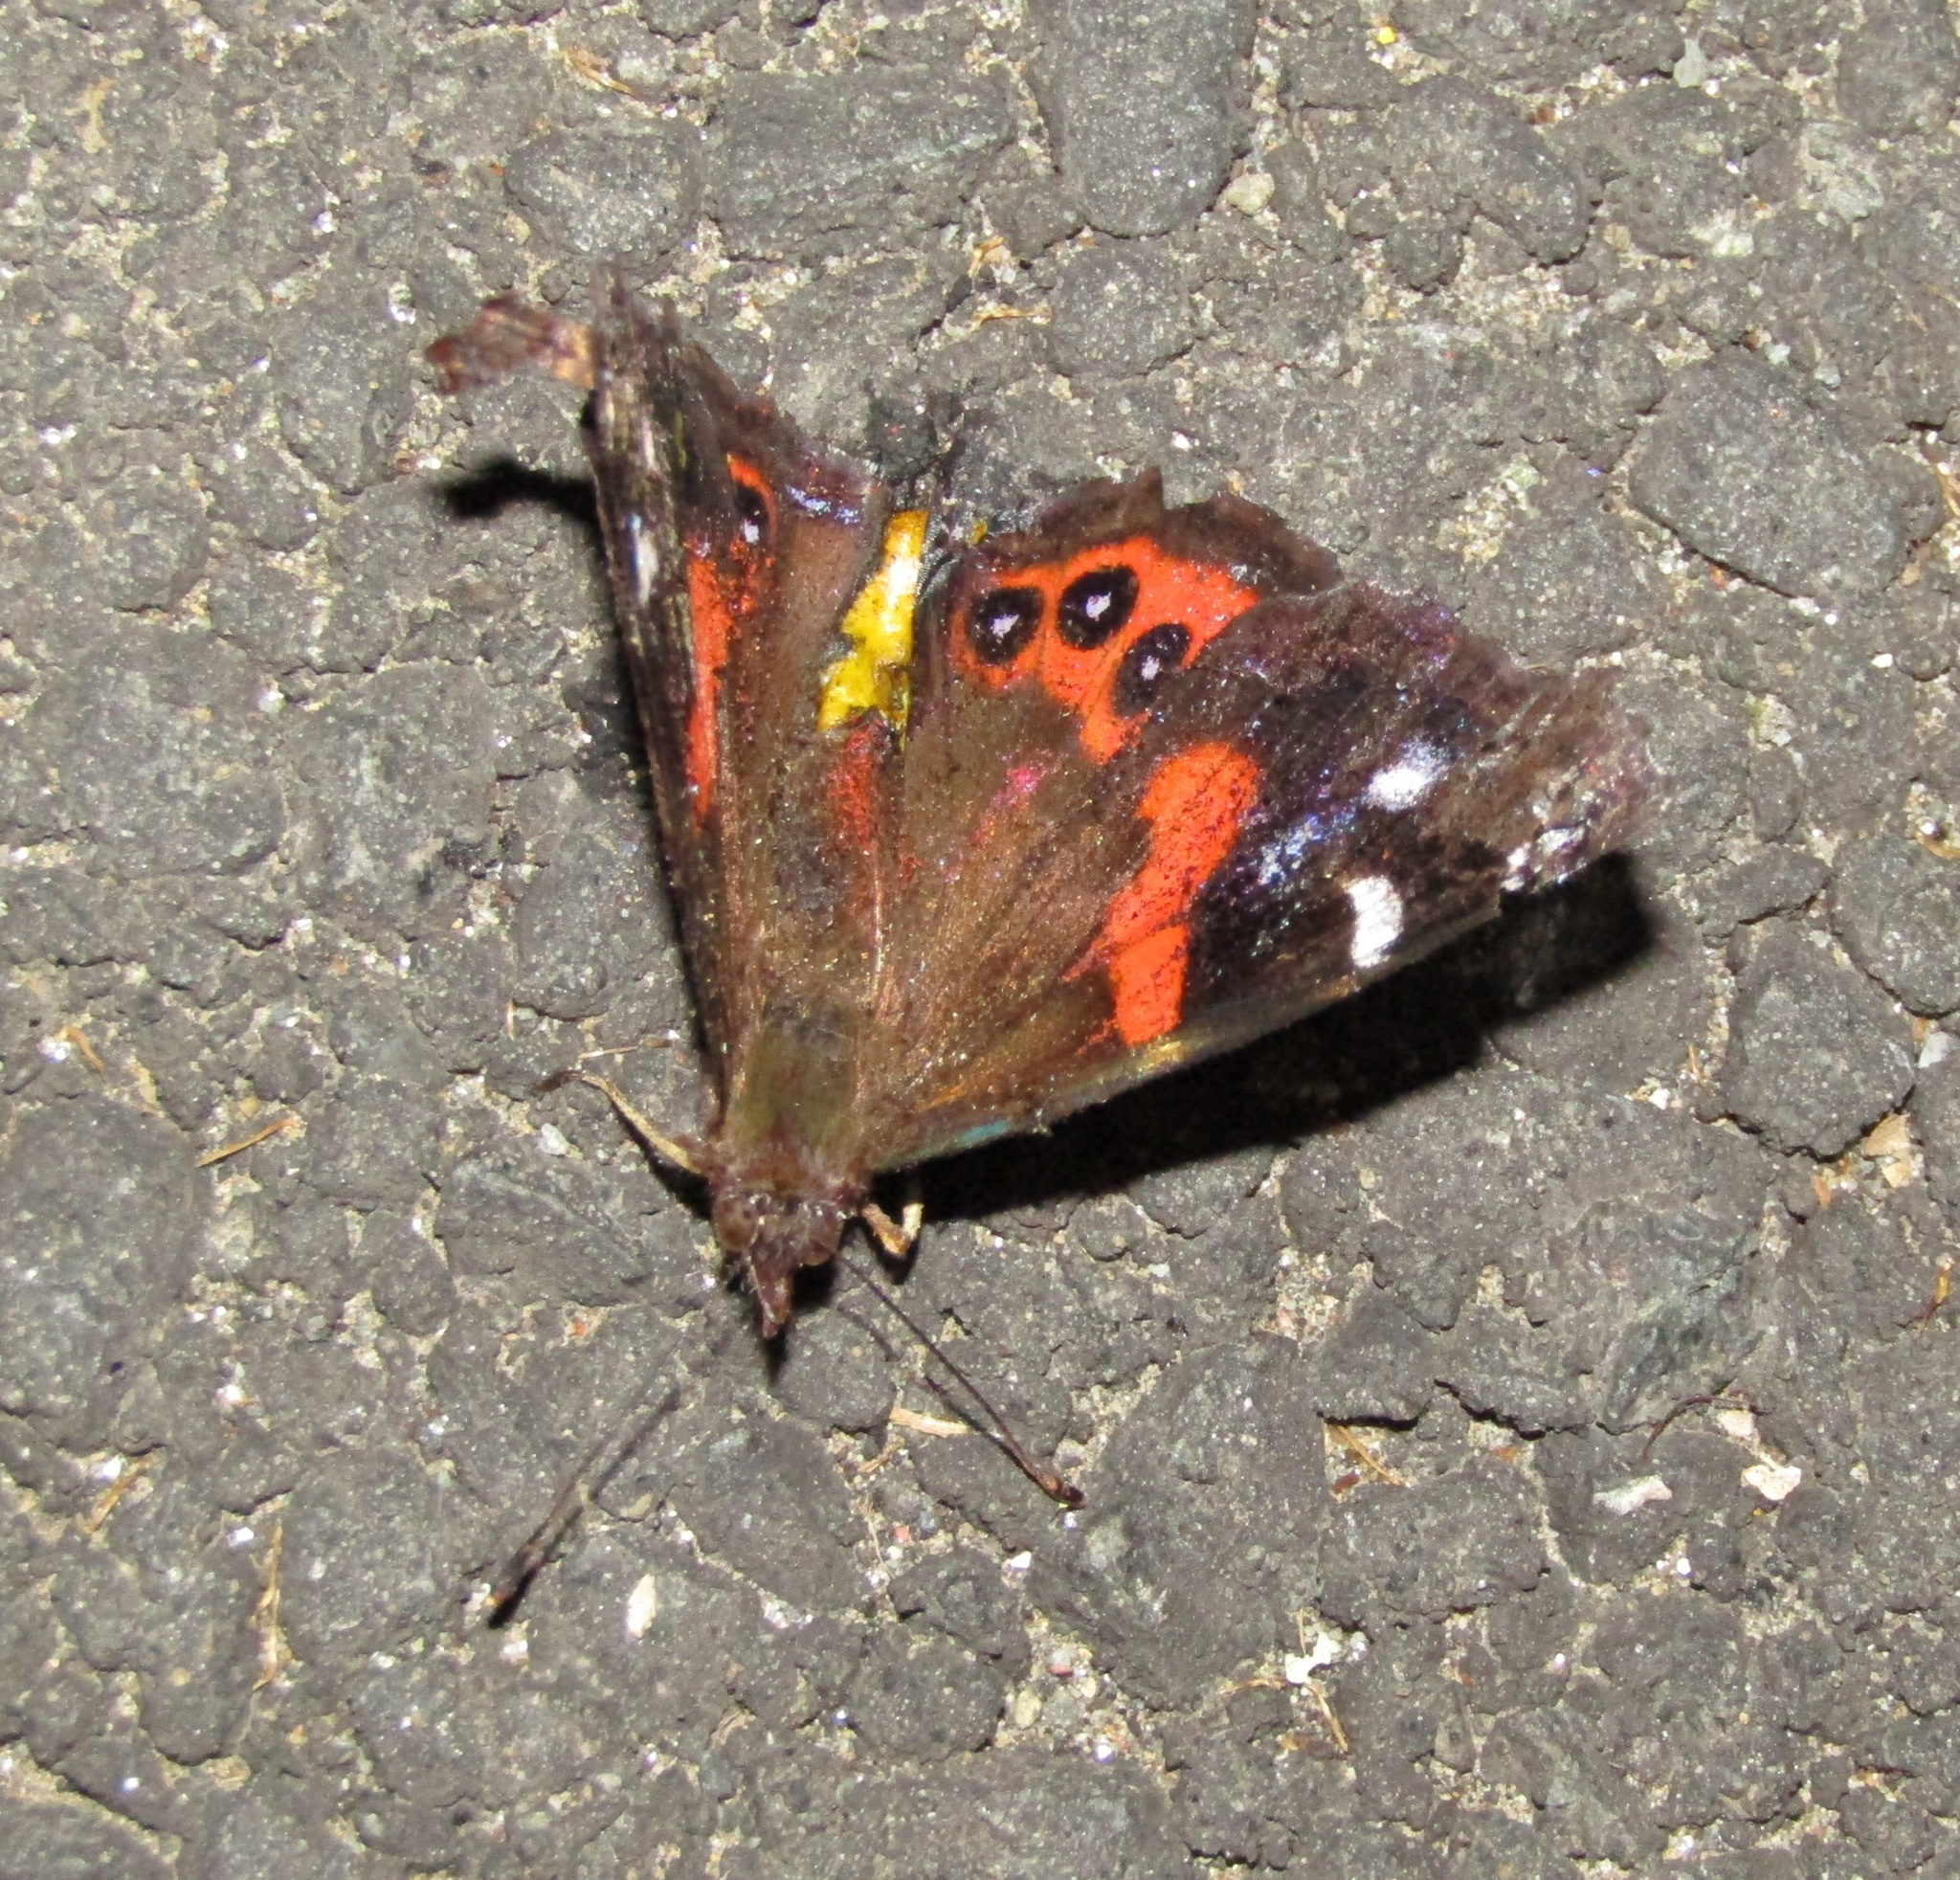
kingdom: Animalia
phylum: Arthropoda
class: Insecta
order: Lepidoptera
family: Nymphalidae
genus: Vanessa
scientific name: Vanessa gonerilla
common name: New zealand red admiral
